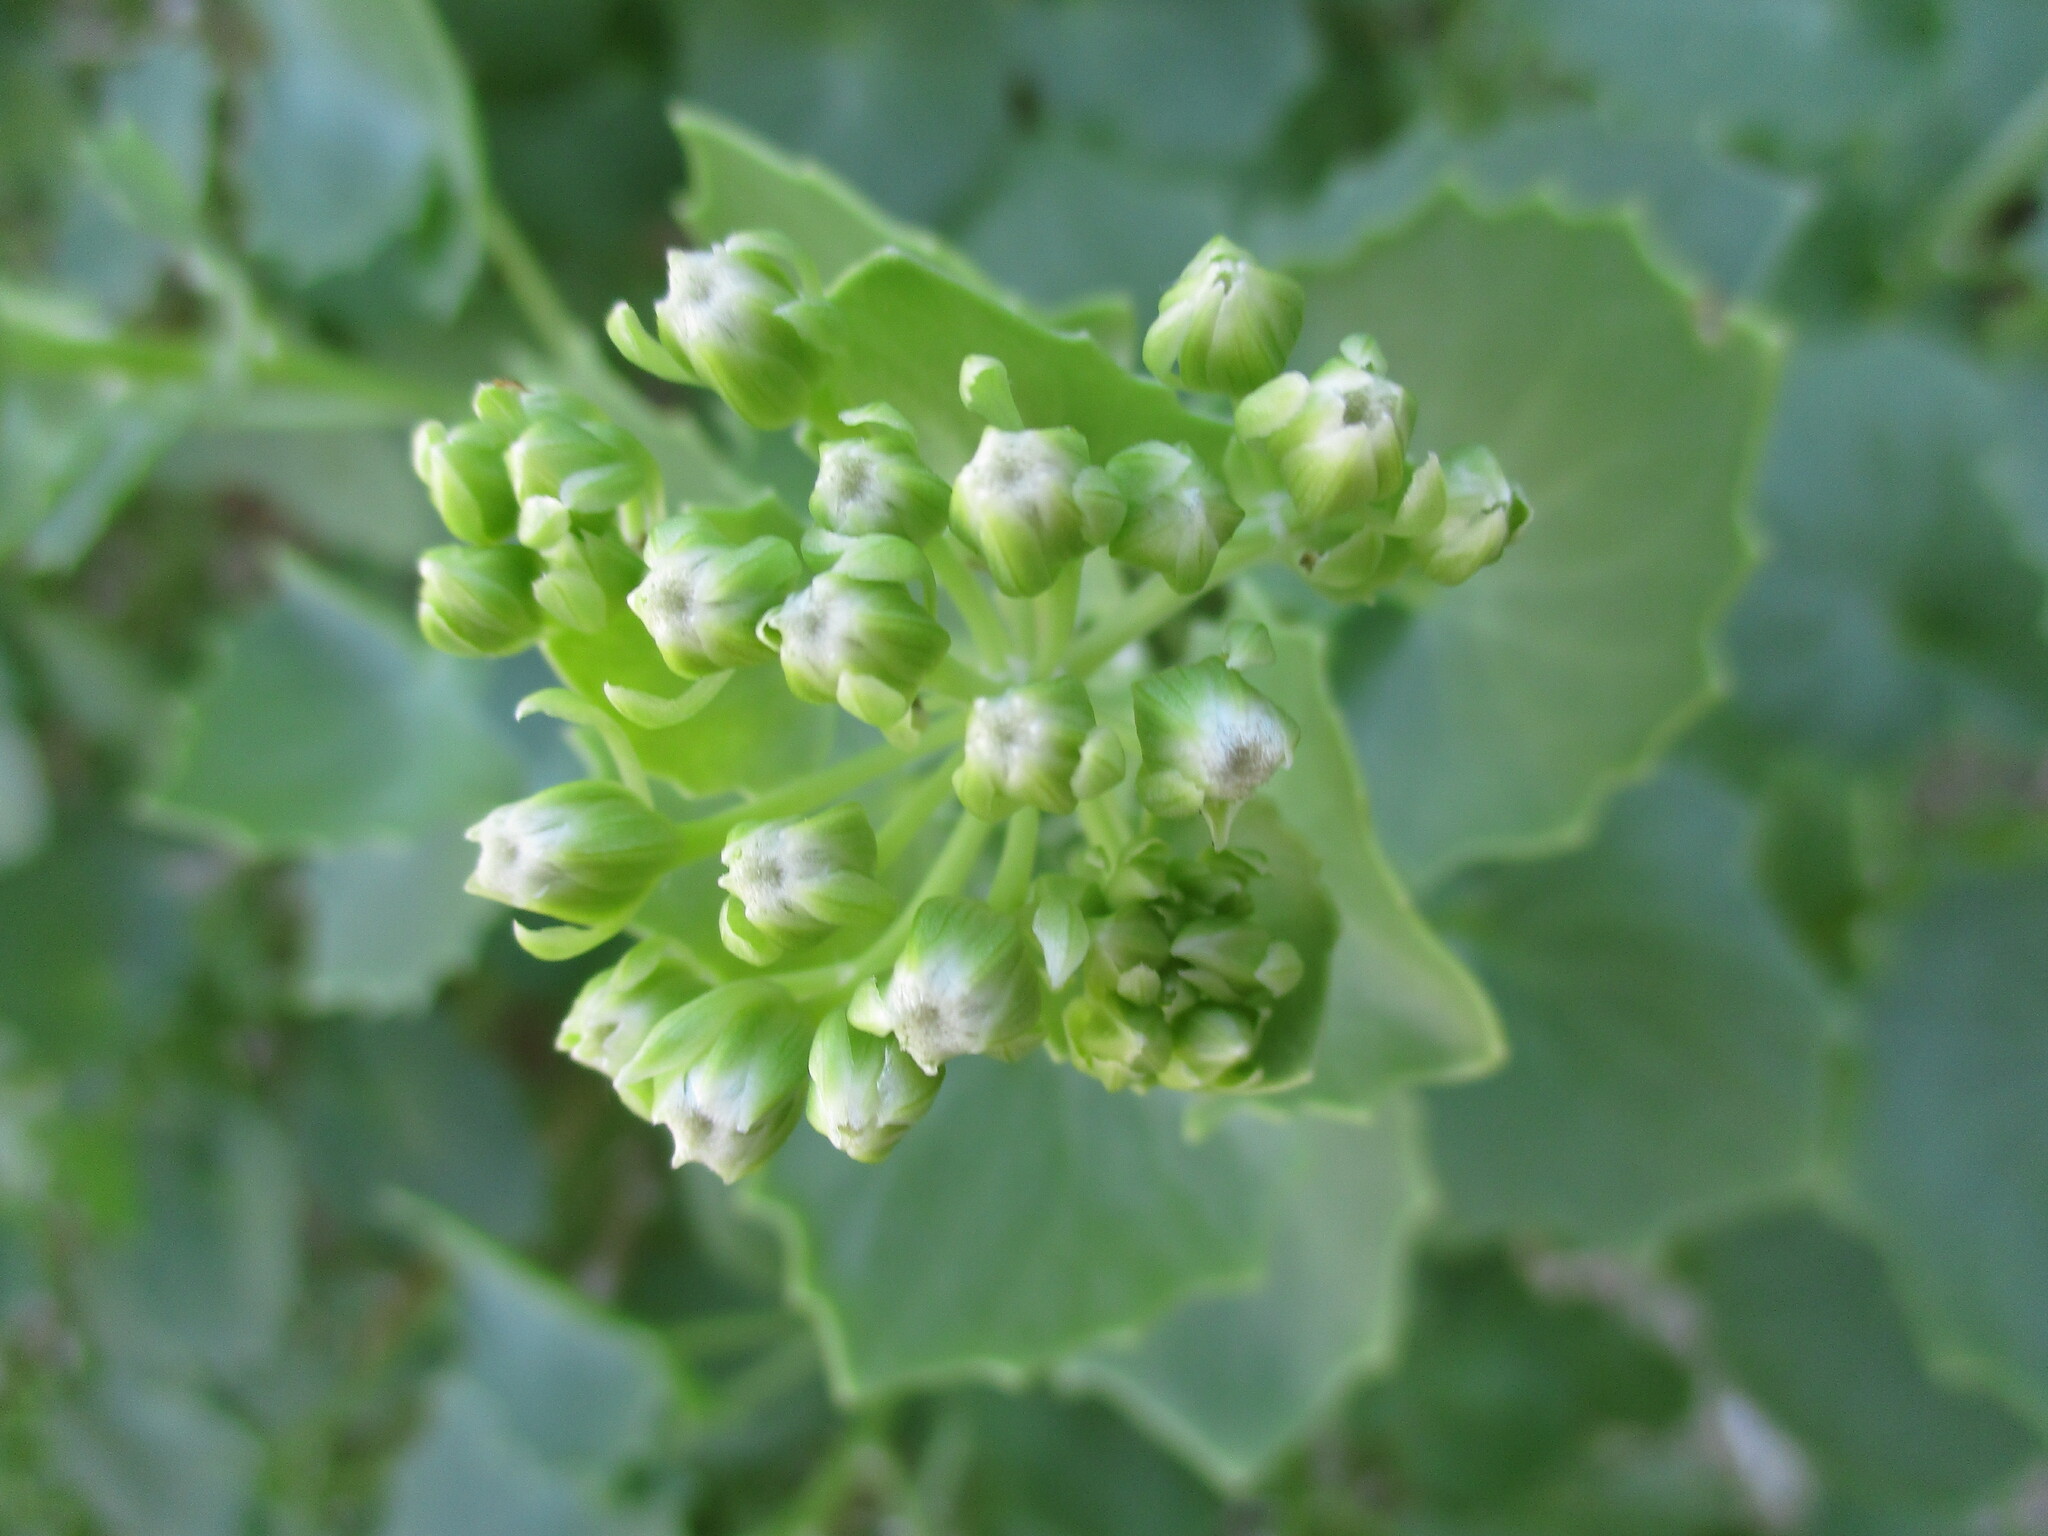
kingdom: Plantae
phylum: Tracheophyta
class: Magnoliopsida
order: Asterales
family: Asteraceae
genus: Dauresia
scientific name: Dauresia alliariifolia
